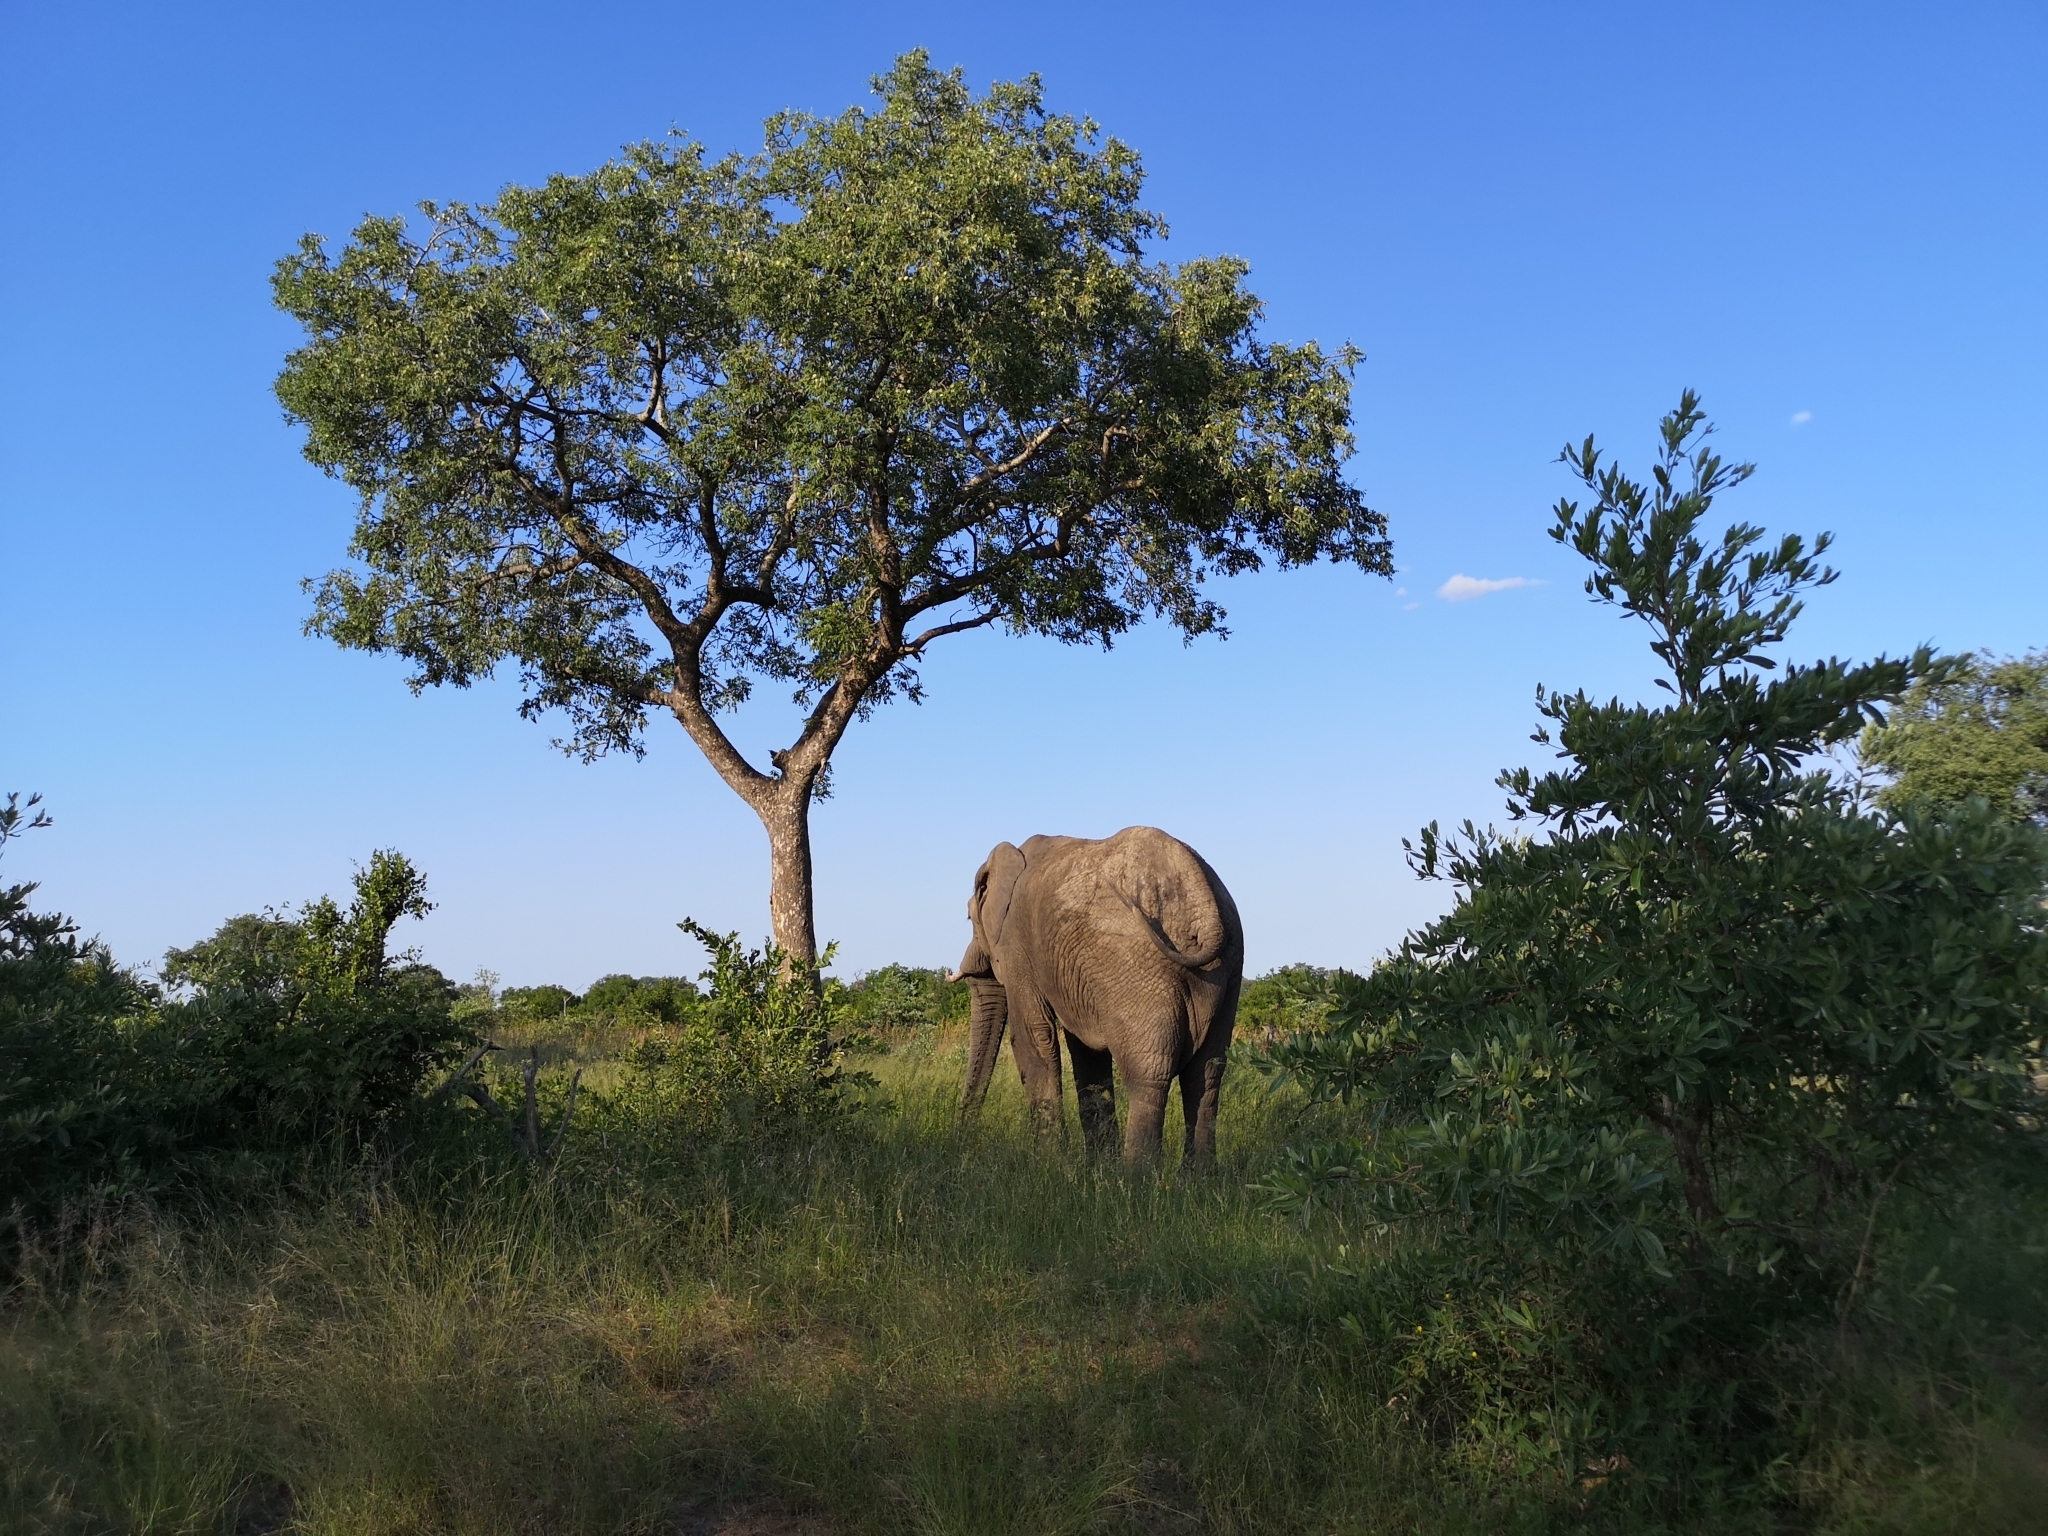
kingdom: Animalia
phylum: Chordata
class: Mammalia
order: Proboscidea
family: Elephantidae
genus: Loxodonta
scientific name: Loxodonta africana
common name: African elephant
